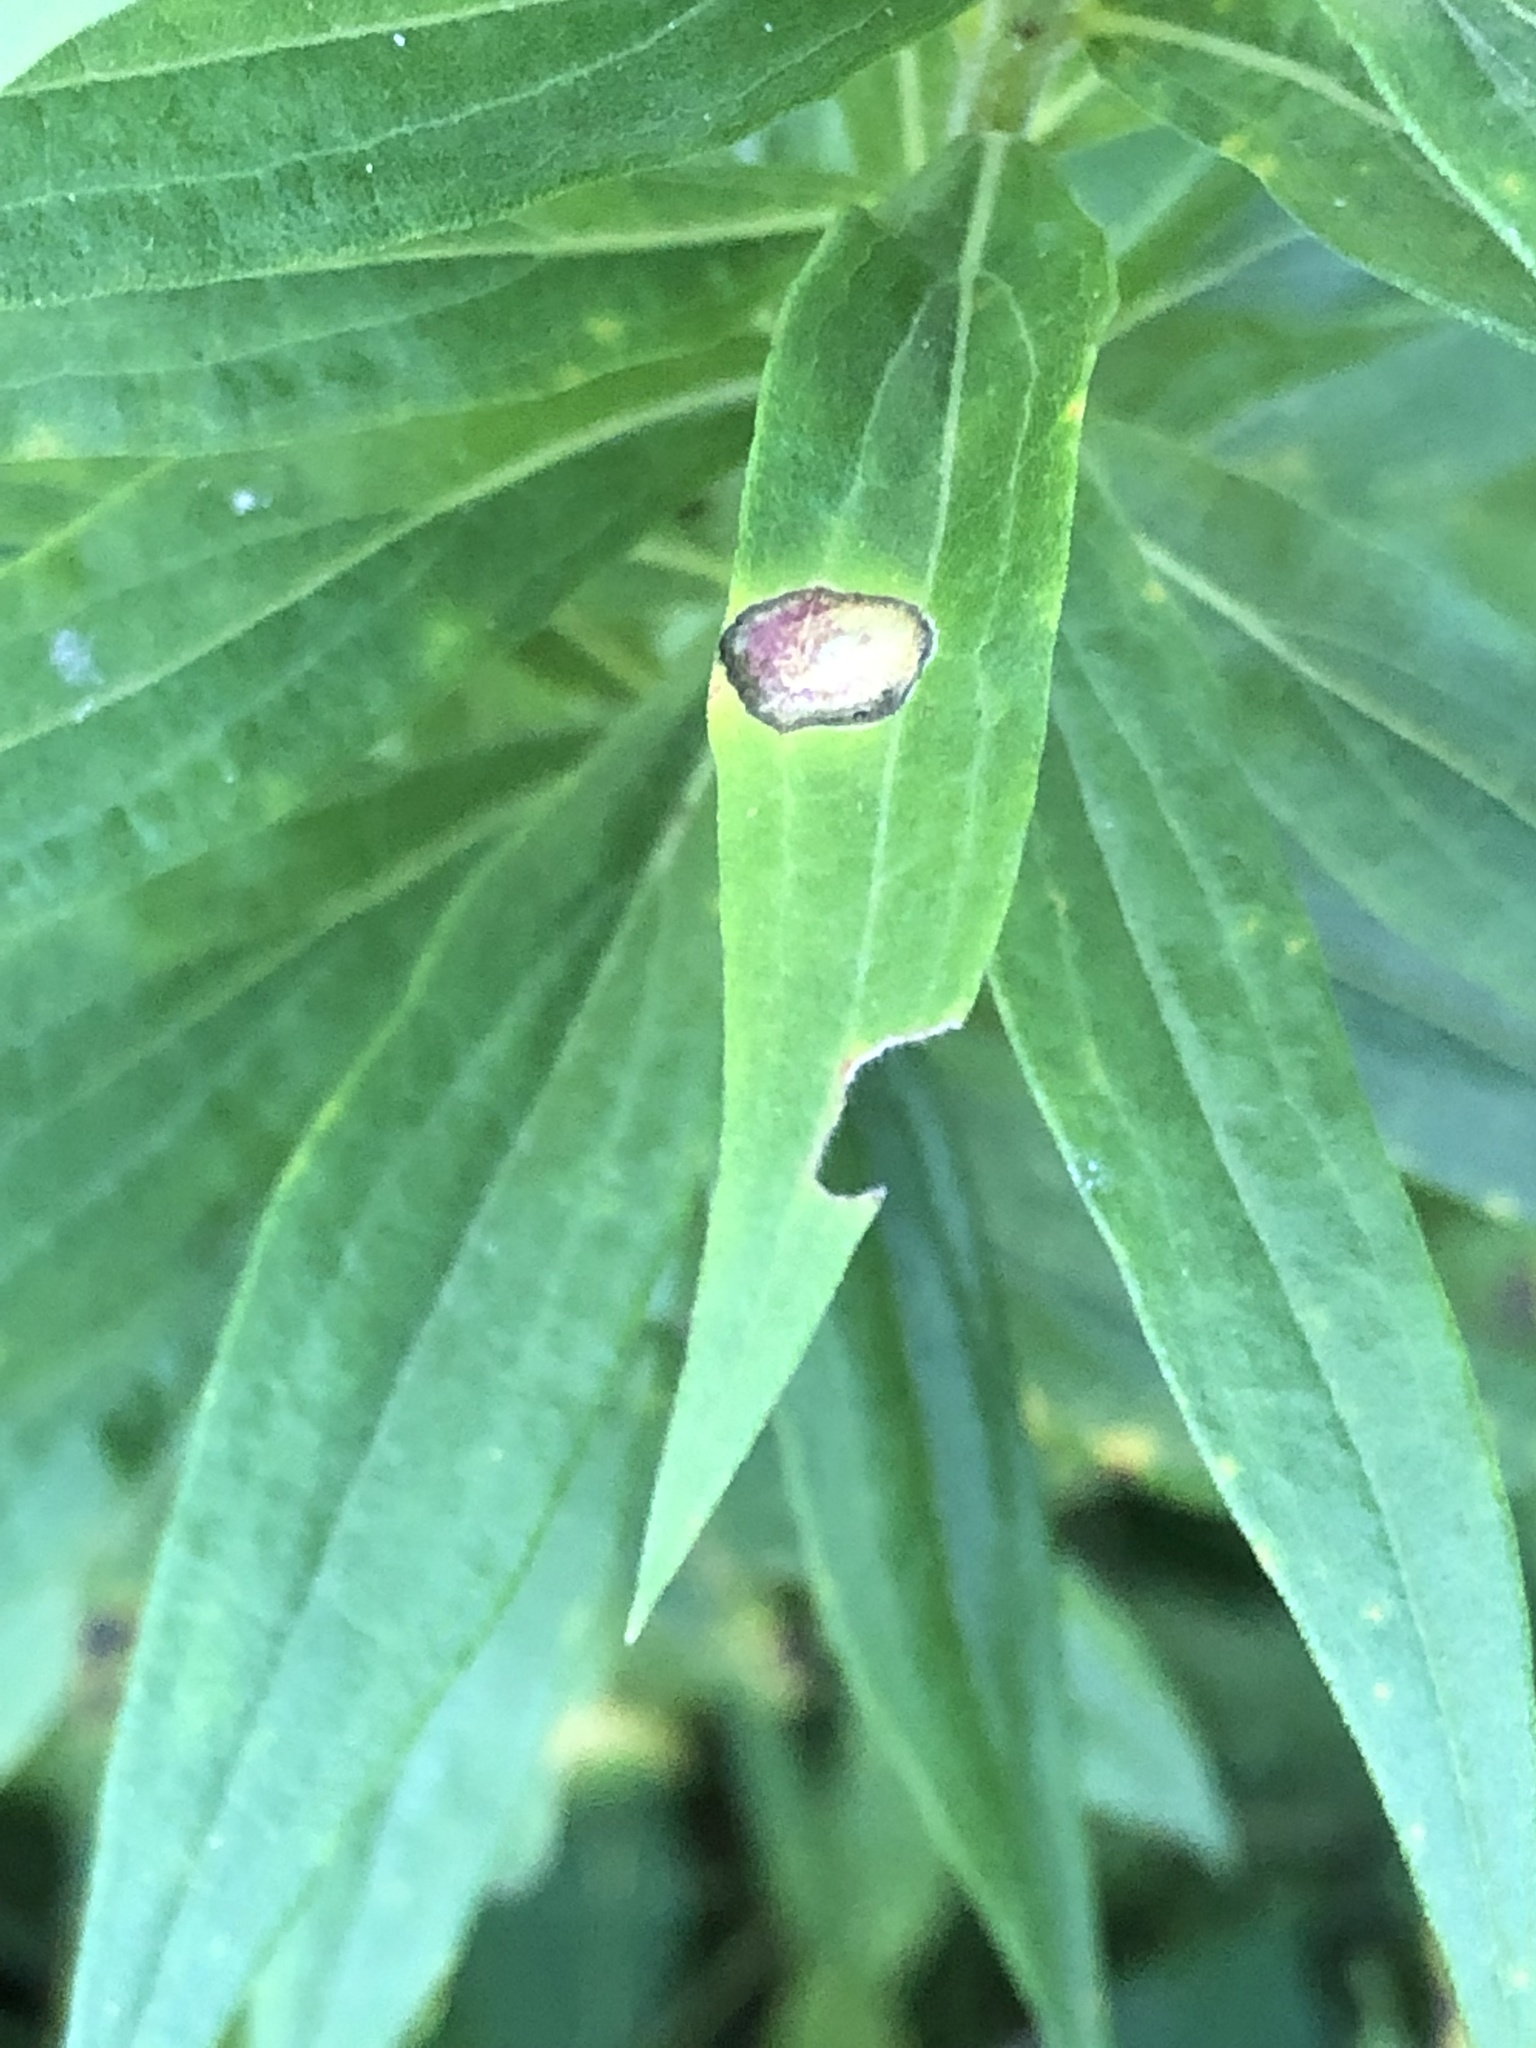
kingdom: Animalia
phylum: Arthropoda
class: Insecta
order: Diptera
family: Cecidomyiidae
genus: Asteromyia
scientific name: Asteromyia carbonifera
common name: Carbonifera goldenrod gall midge
